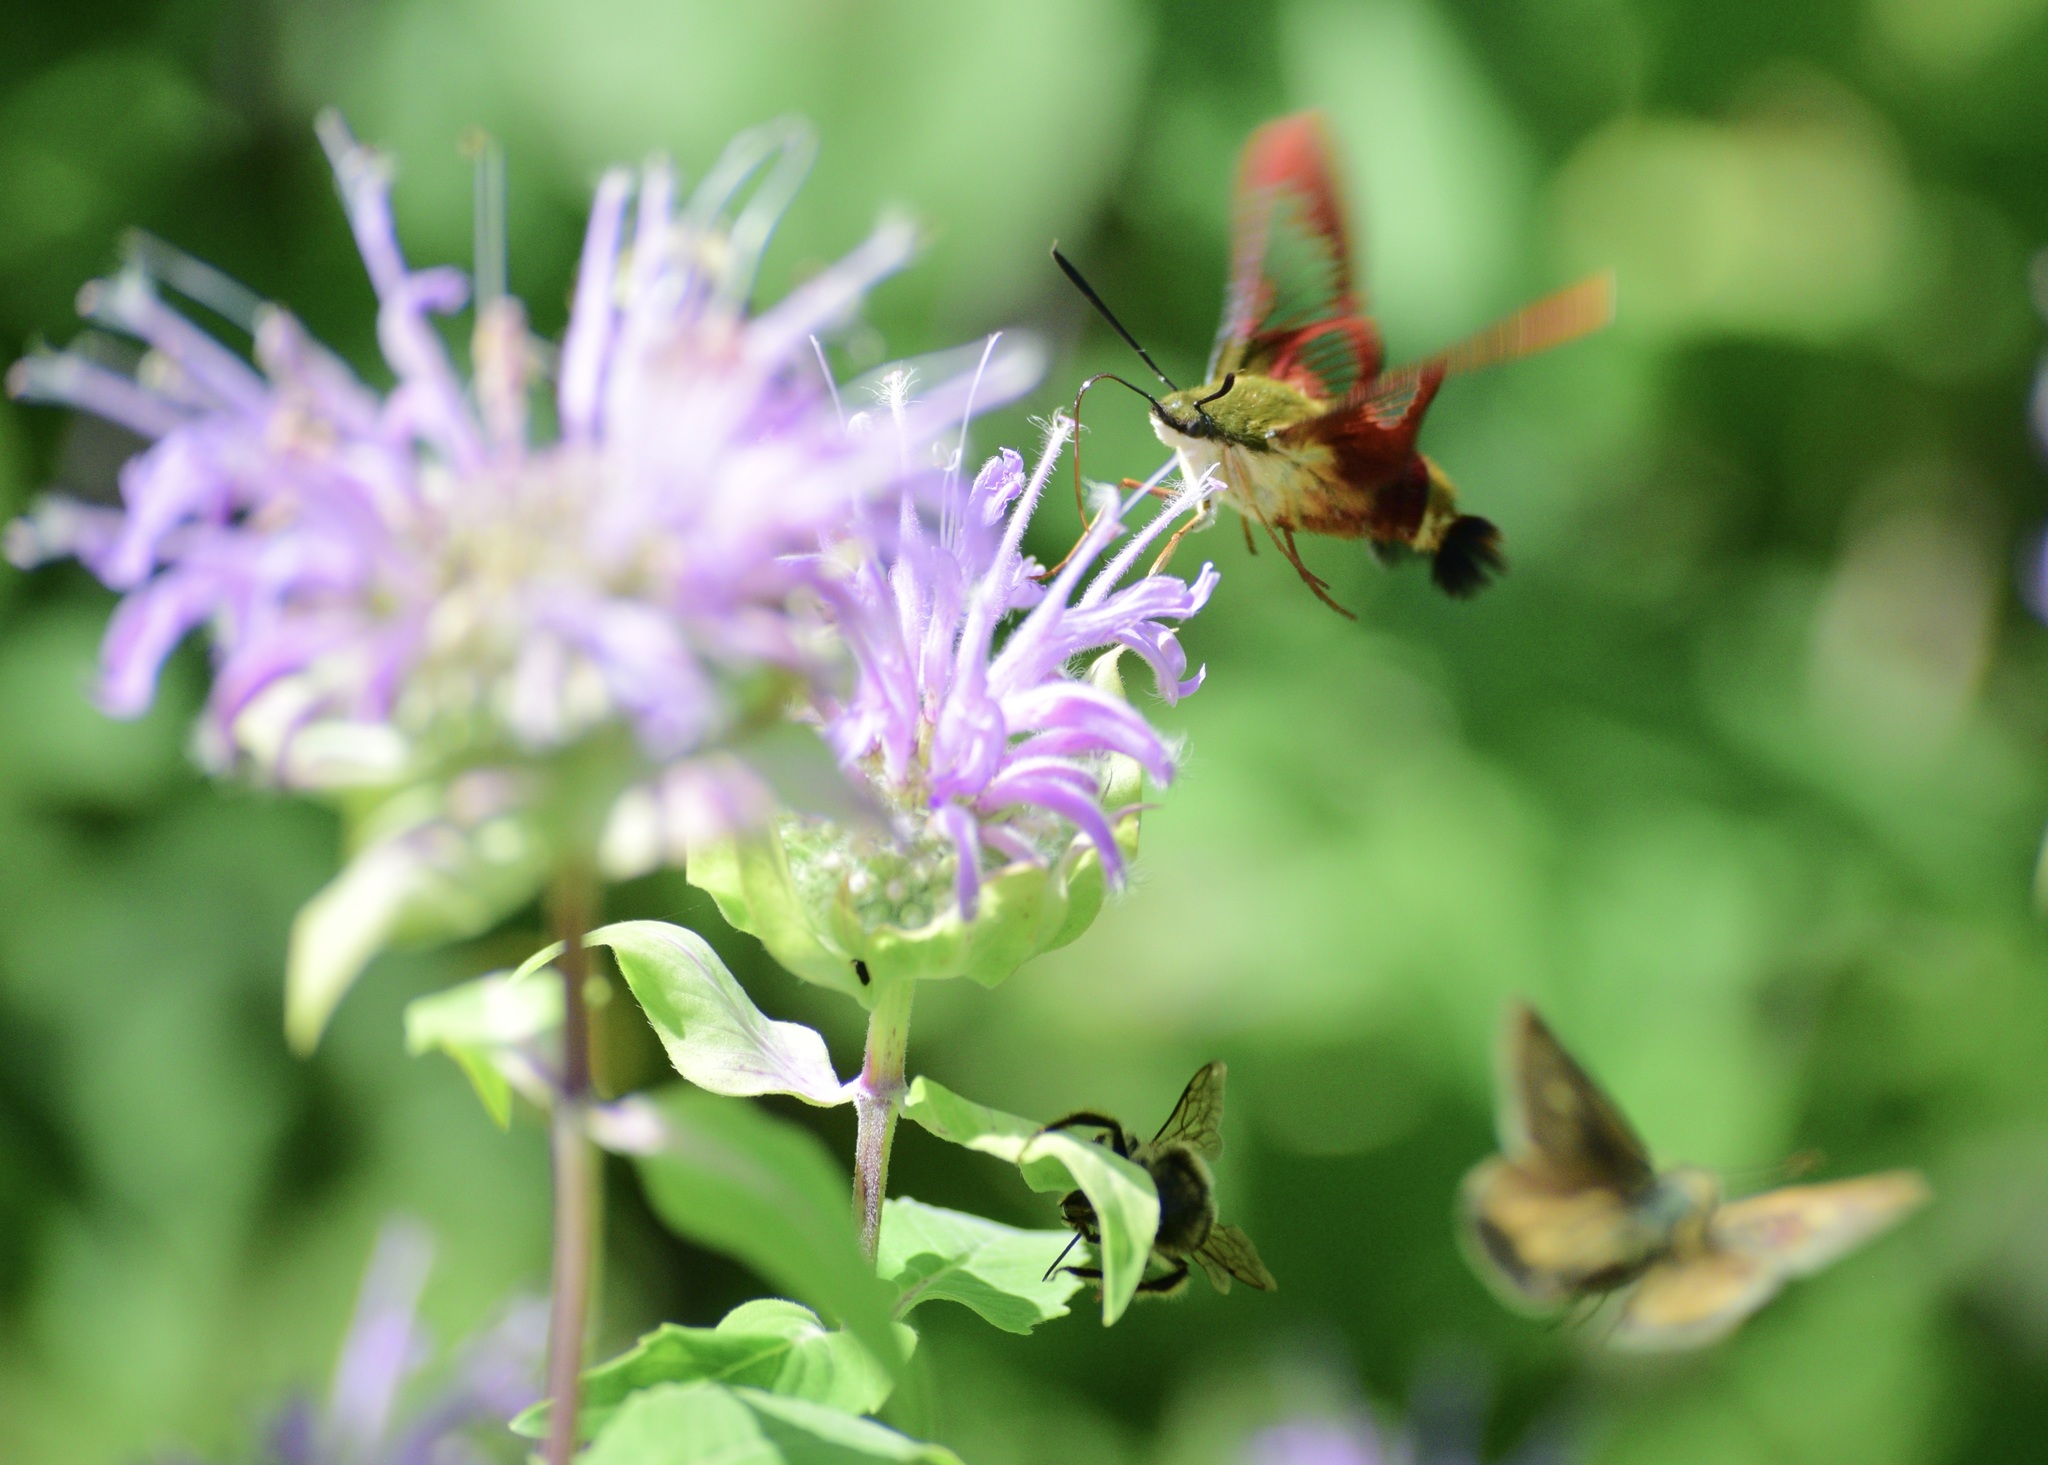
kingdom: Animalia
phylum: Arthropoda
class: Insecta
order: Lepidoptera
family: Sphingidae
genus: Hemaris
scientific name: Hemaris thysbe
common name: Common clear-wing
